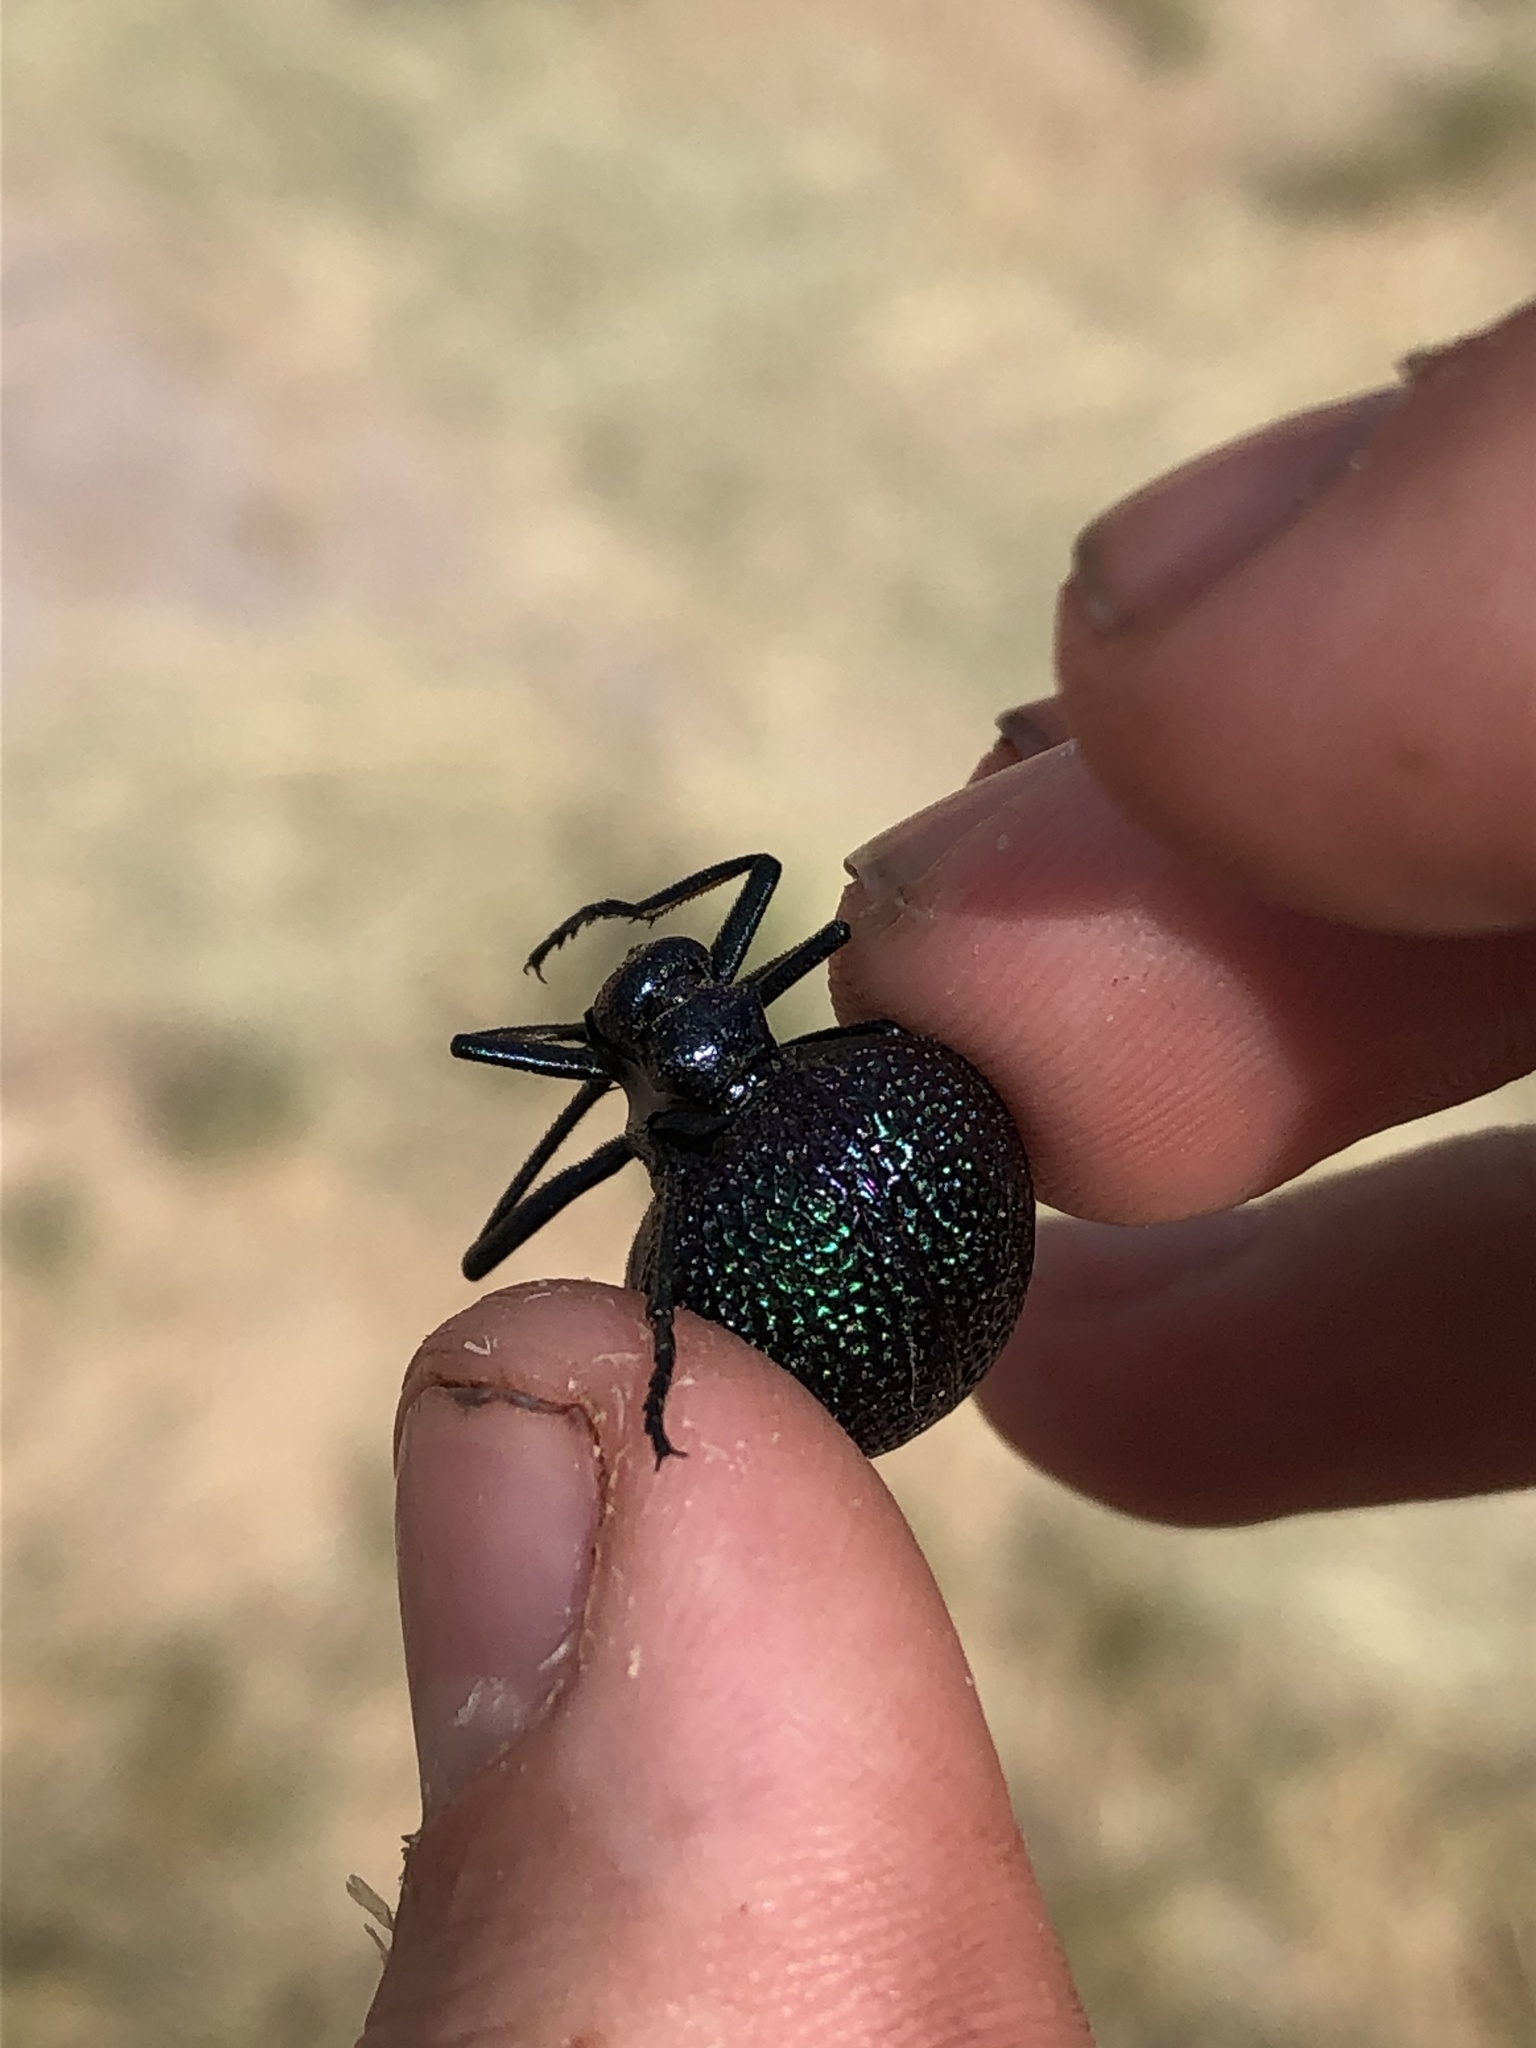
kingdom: Animalia
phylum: Arthropoda
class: Insecta
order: Coleoptera
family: Meloidae
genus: Cysteodemus
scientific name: Cysteodemus wislizeni
